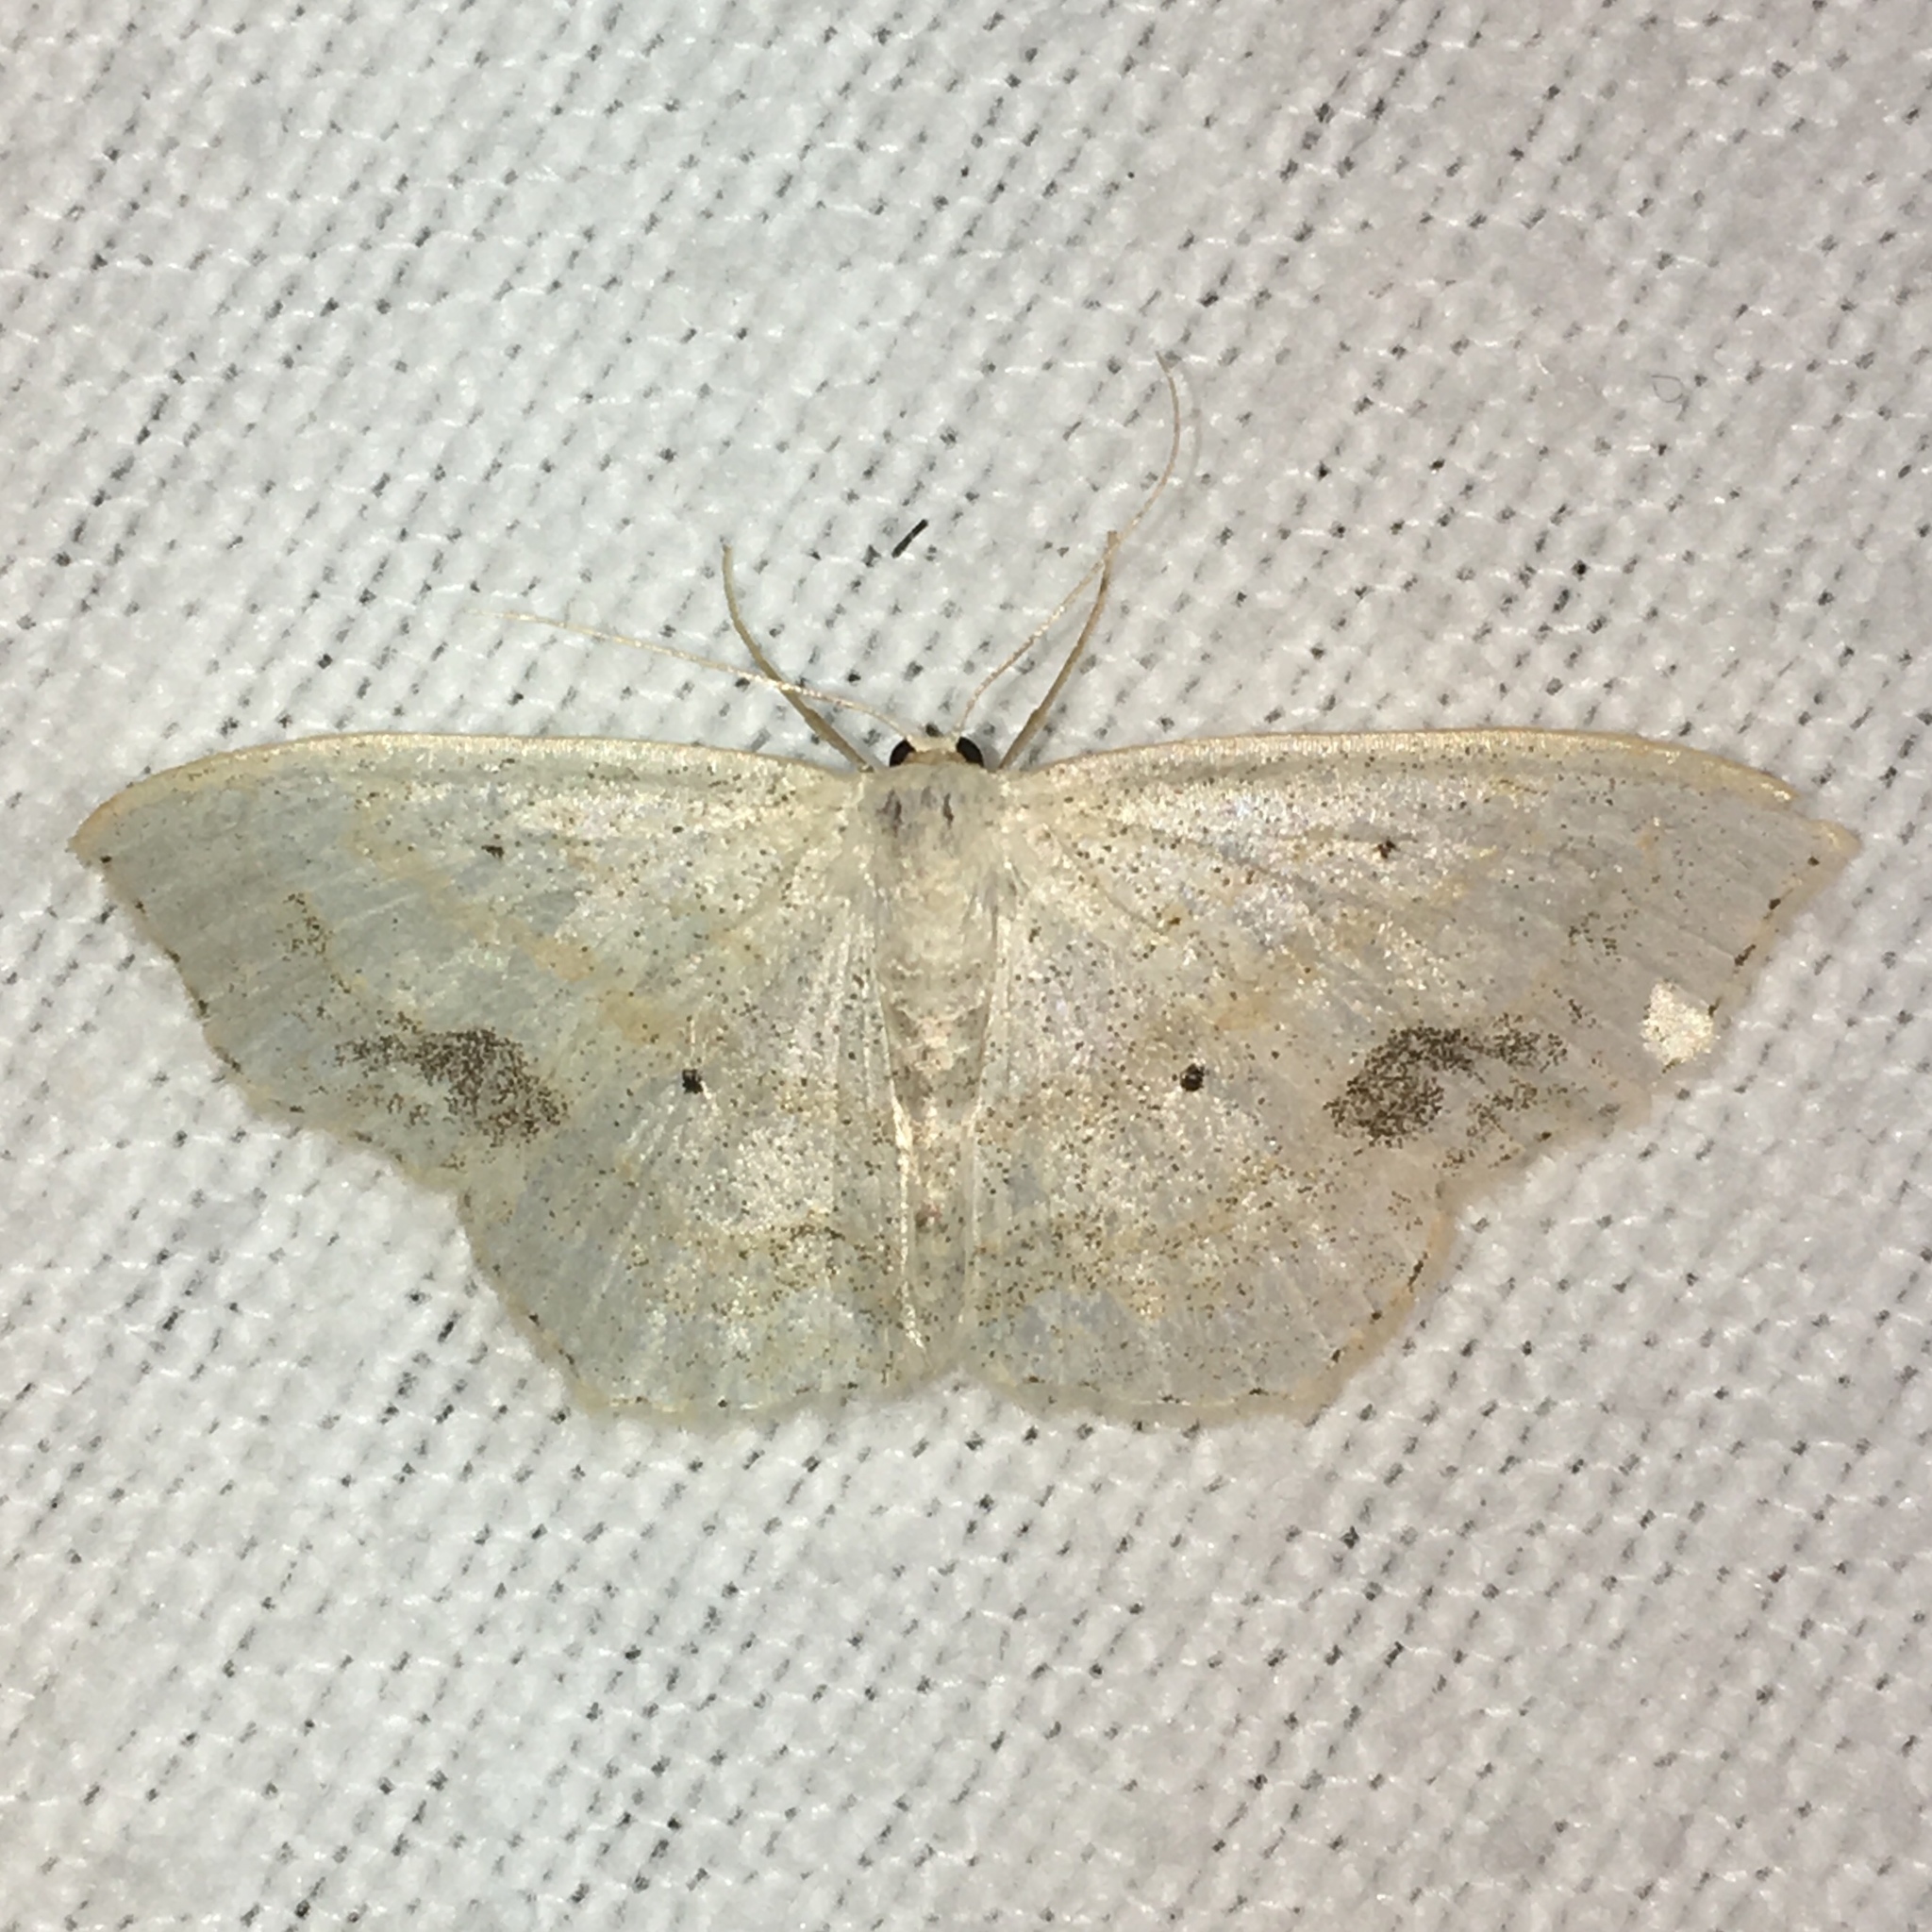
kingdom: Animalia
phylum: Arthropoda
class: Insecta
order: Lepidoptera
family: Geometridae
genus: Scopula
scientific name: Scopula limboundata
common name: Large lace border
